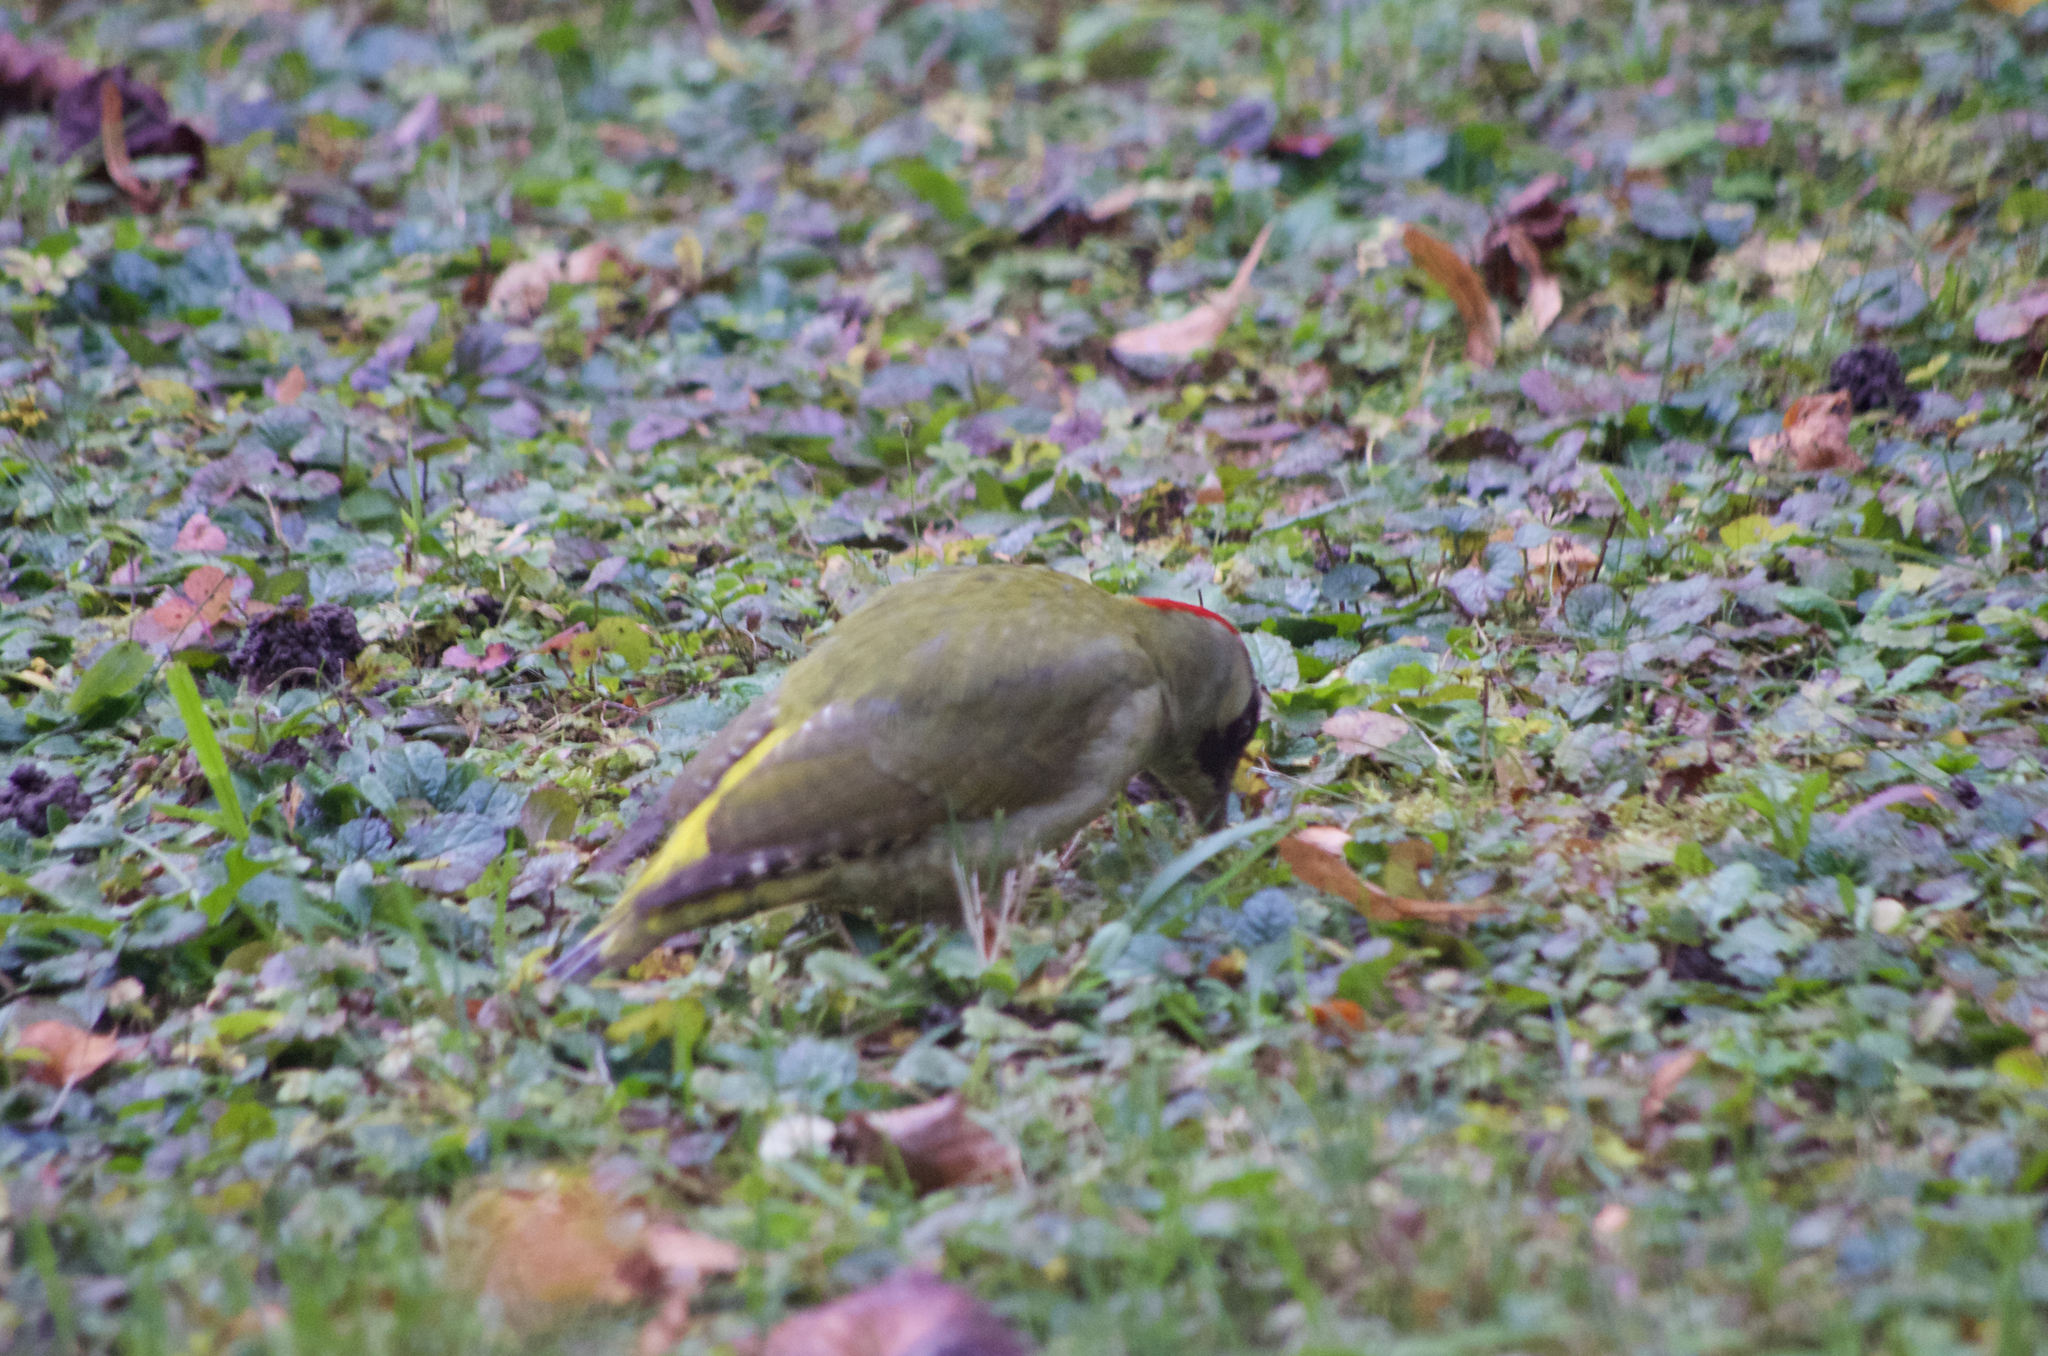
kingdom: Animalia
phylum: Chordata
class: Aves
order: Piciformes
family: Picidae
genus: Picus
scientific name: Picus viridis
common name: European green woodpecker
